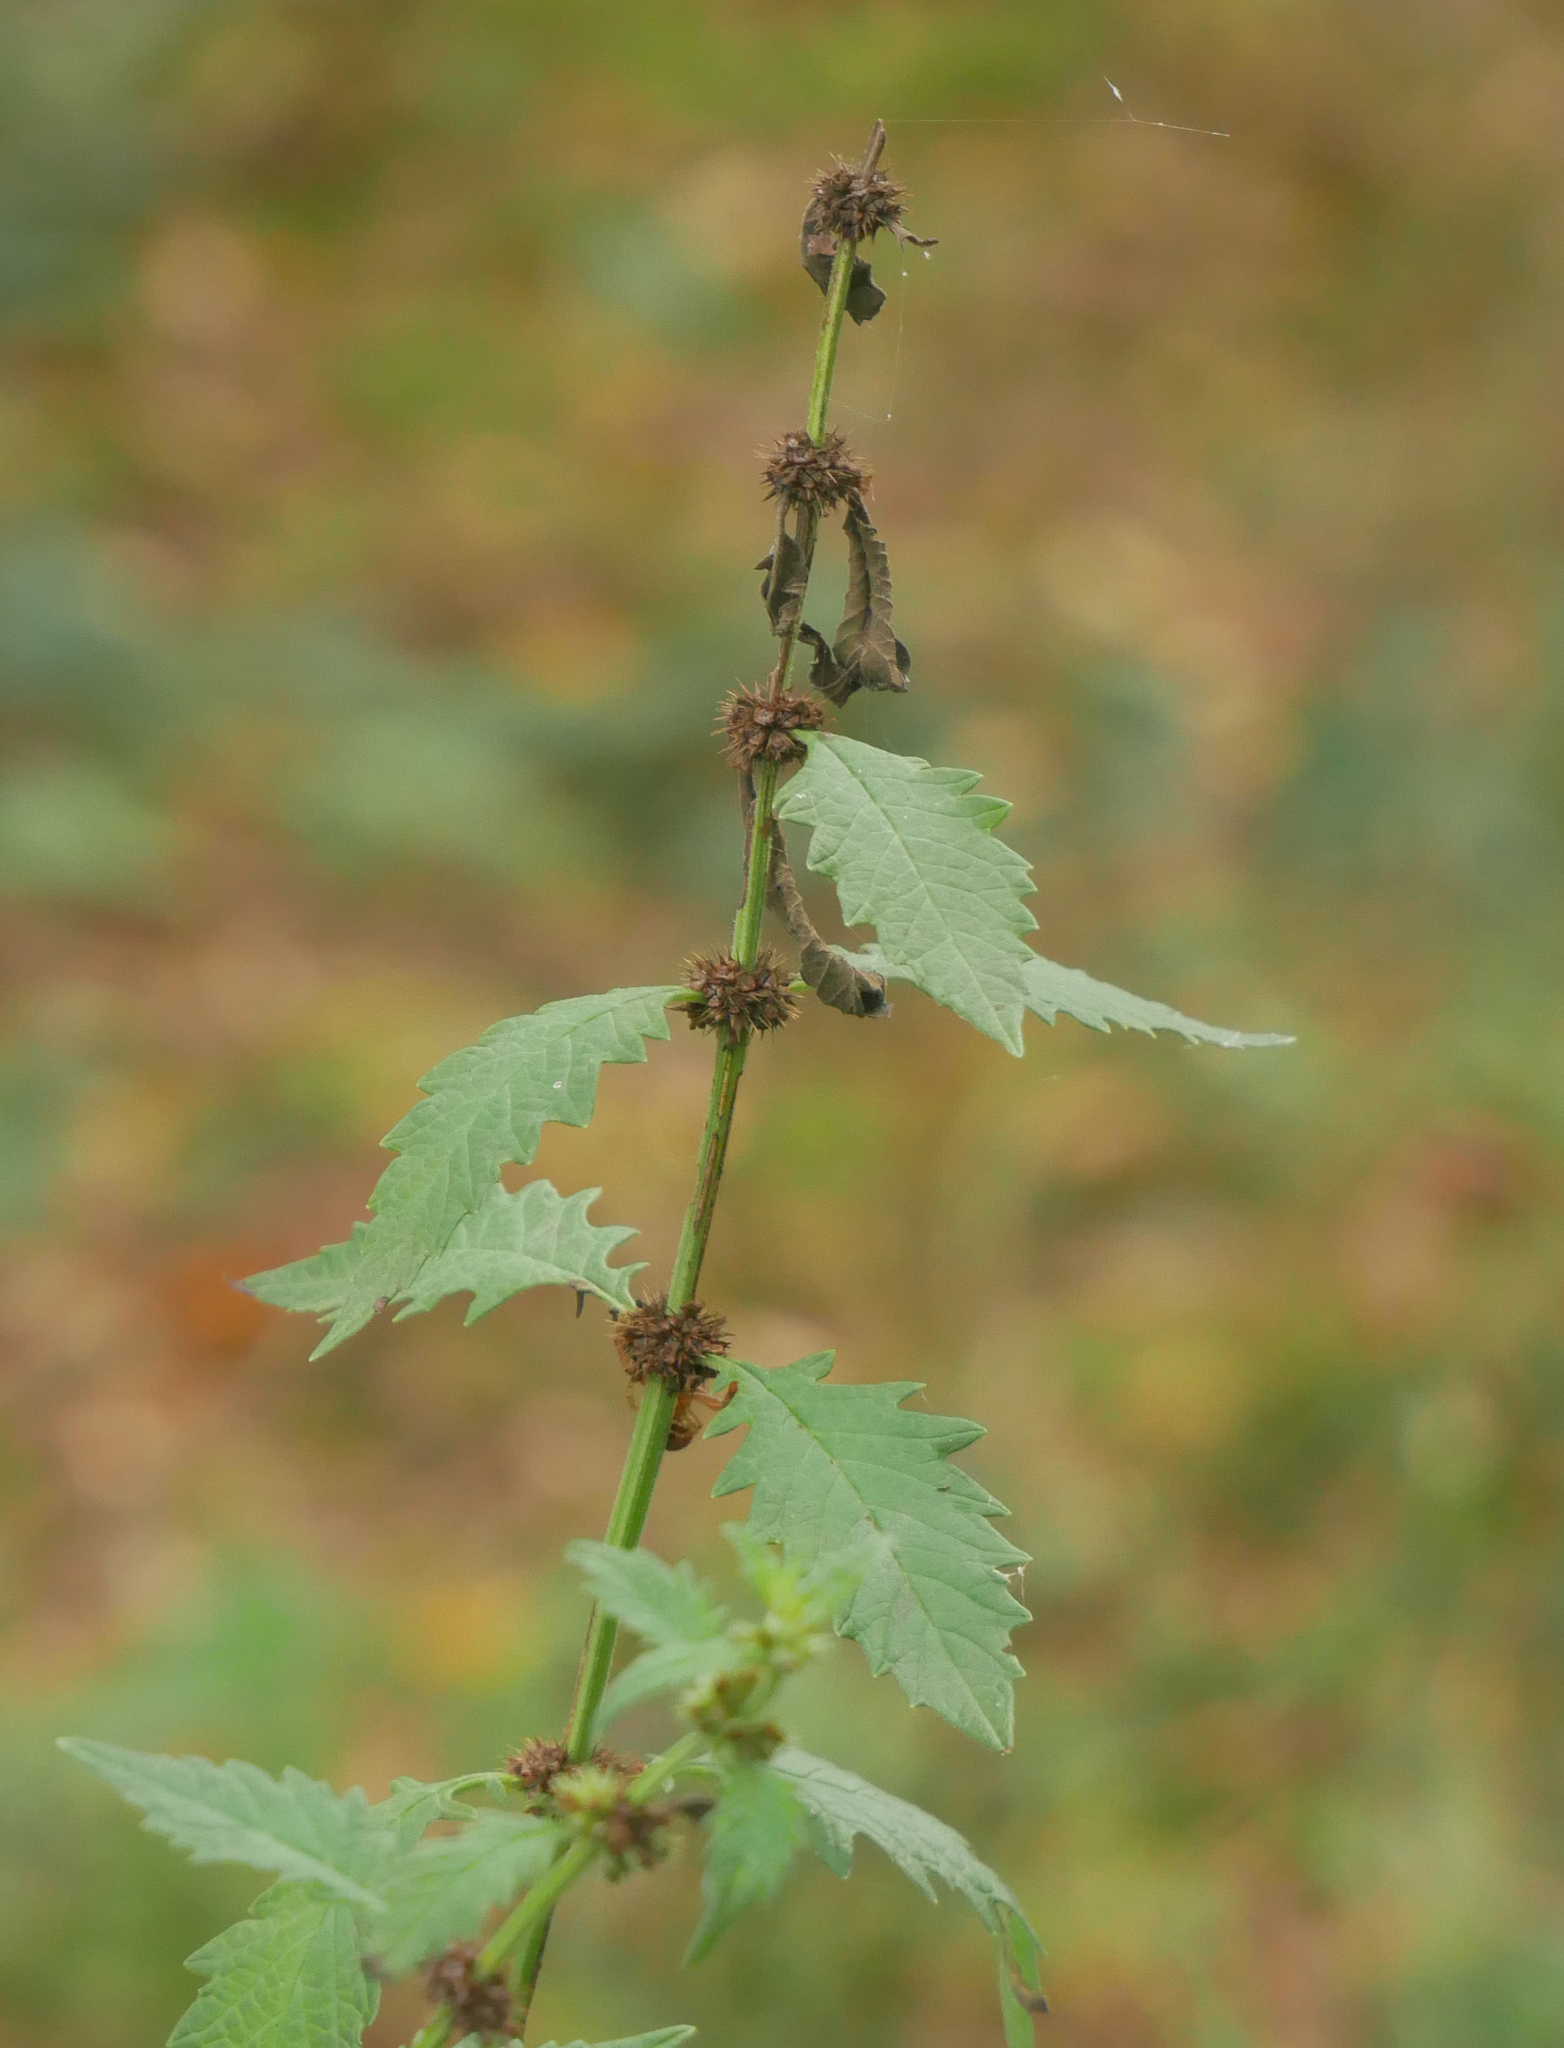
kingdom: Plantae
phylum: Tracheophyta
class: Magnoliopsida
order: Lamiales
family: Lamiaceae
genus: Lycopus
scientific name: Lycopus europaeus
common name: European bugleweed
